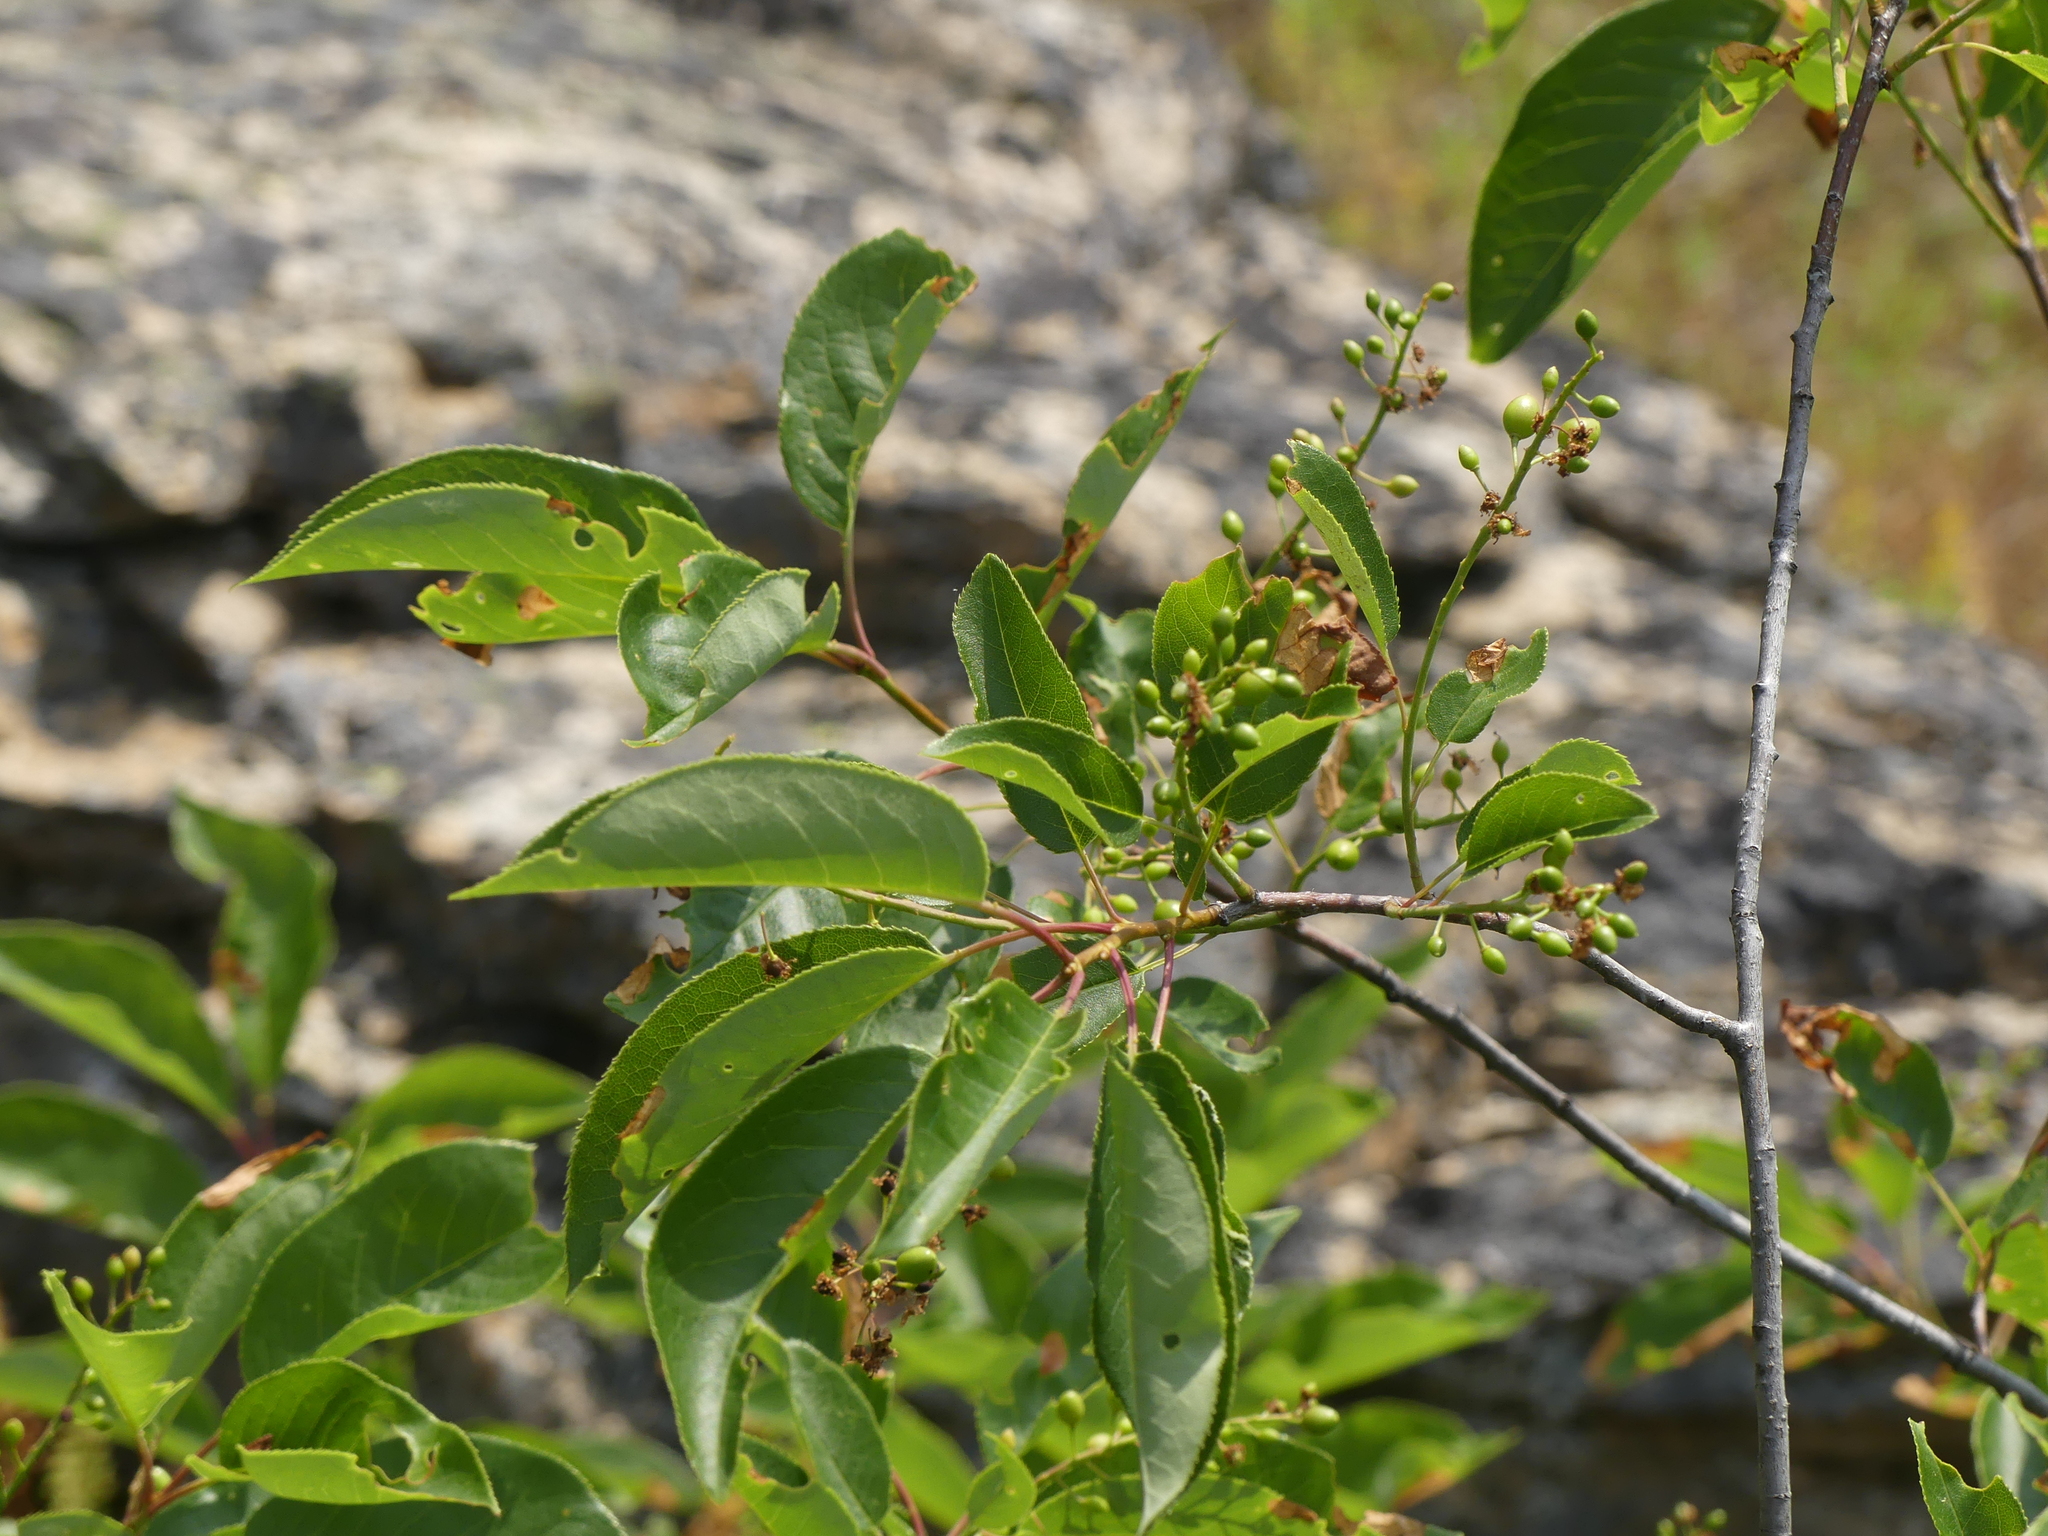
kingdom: Plantae
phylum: Tracheophyta
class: Magnoliopsida
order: Rosales
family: Rosaceae
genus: Prunus
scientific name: Prunus virginiana
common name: Chokecherry
